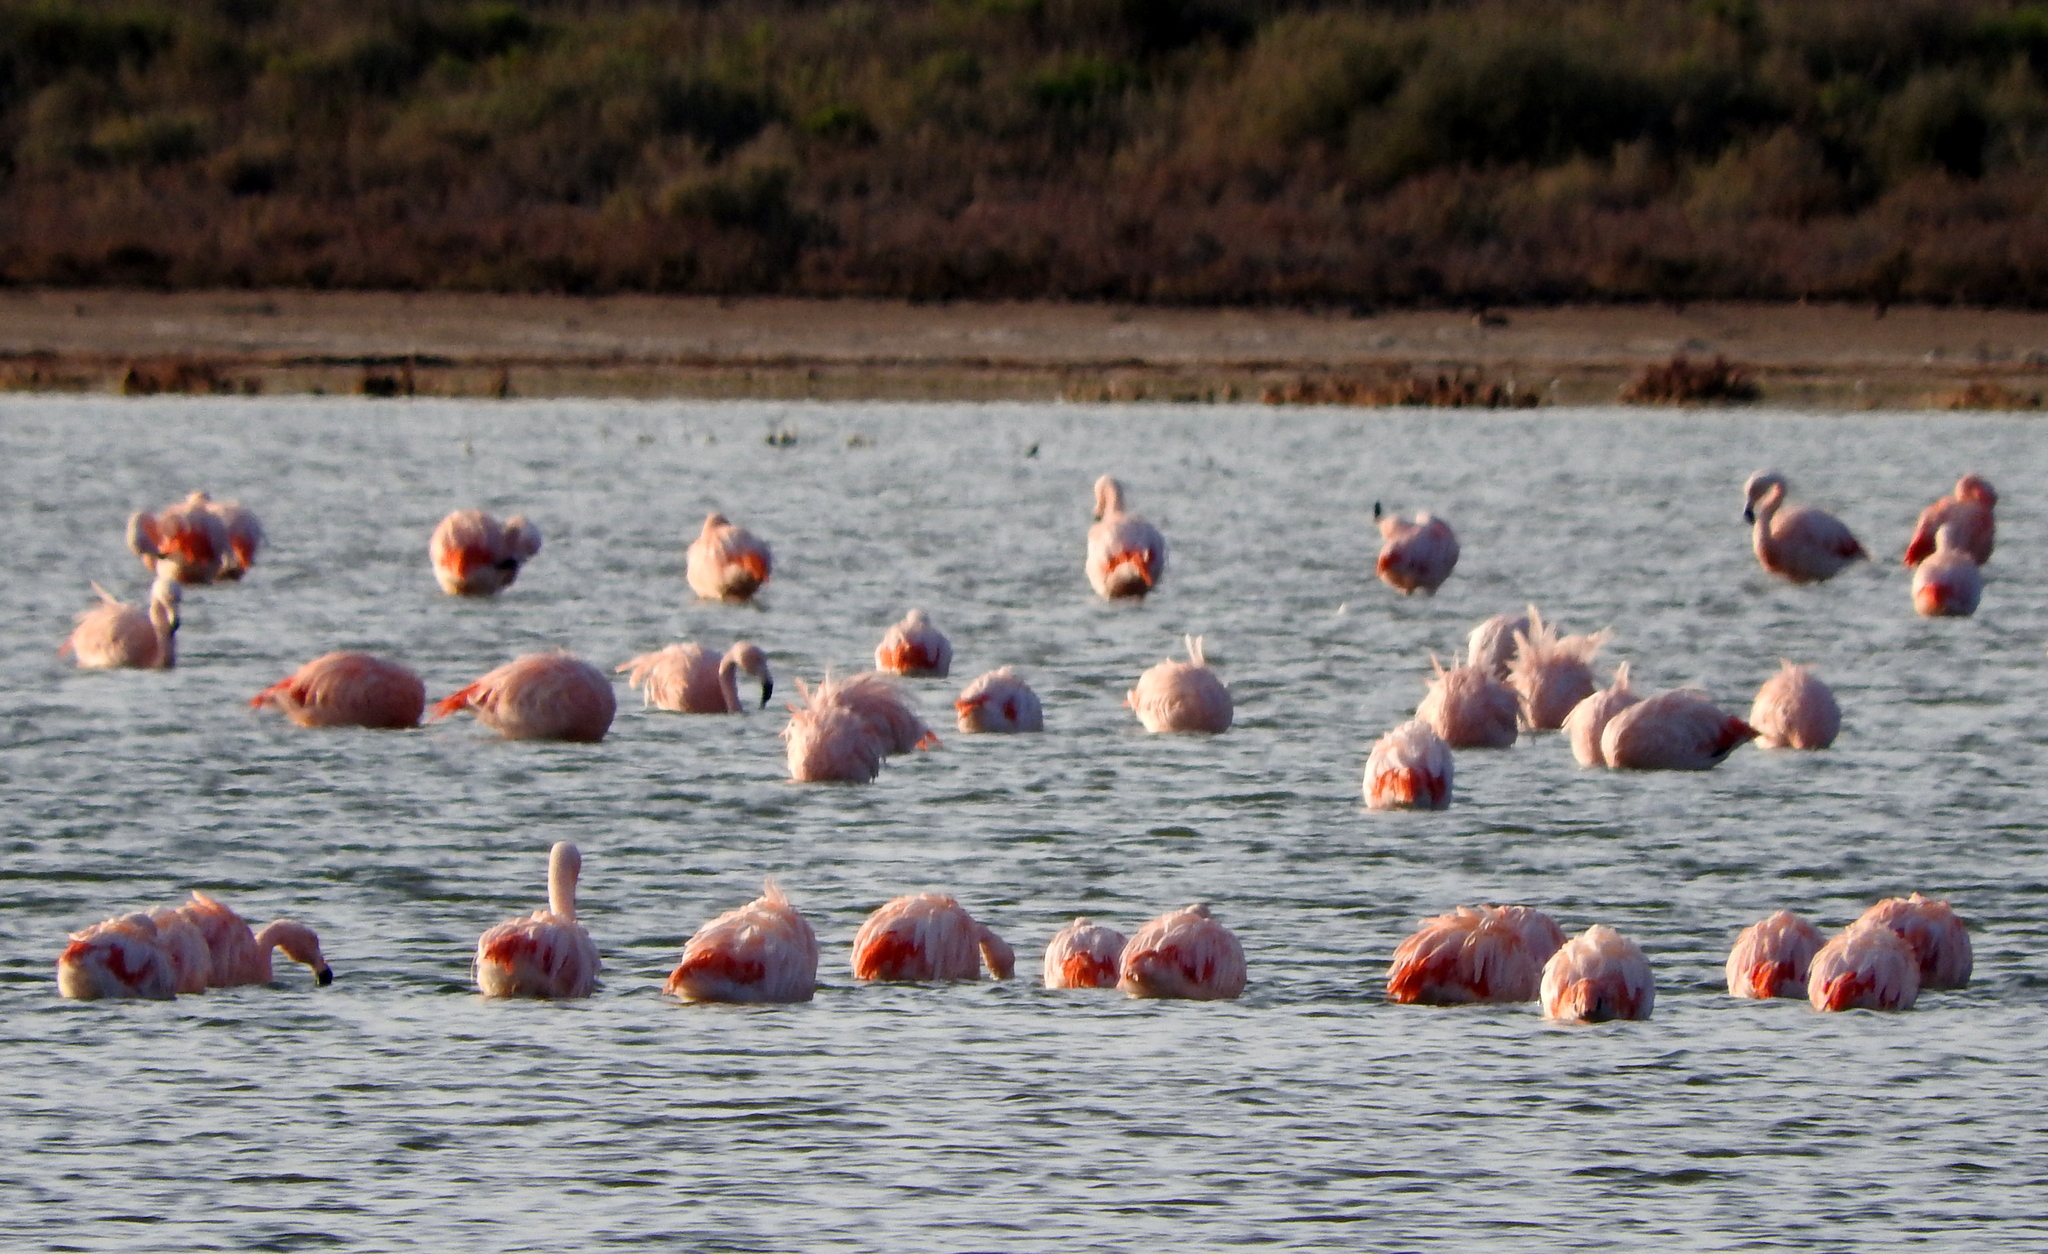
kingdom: Animalia
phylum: Chordata
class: Aves
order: Phoenicopteriformes
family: Phoenicopteridae
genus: Phoenicopterus
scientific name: Phoenicopterus chilensis
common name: Chilean flamingo
